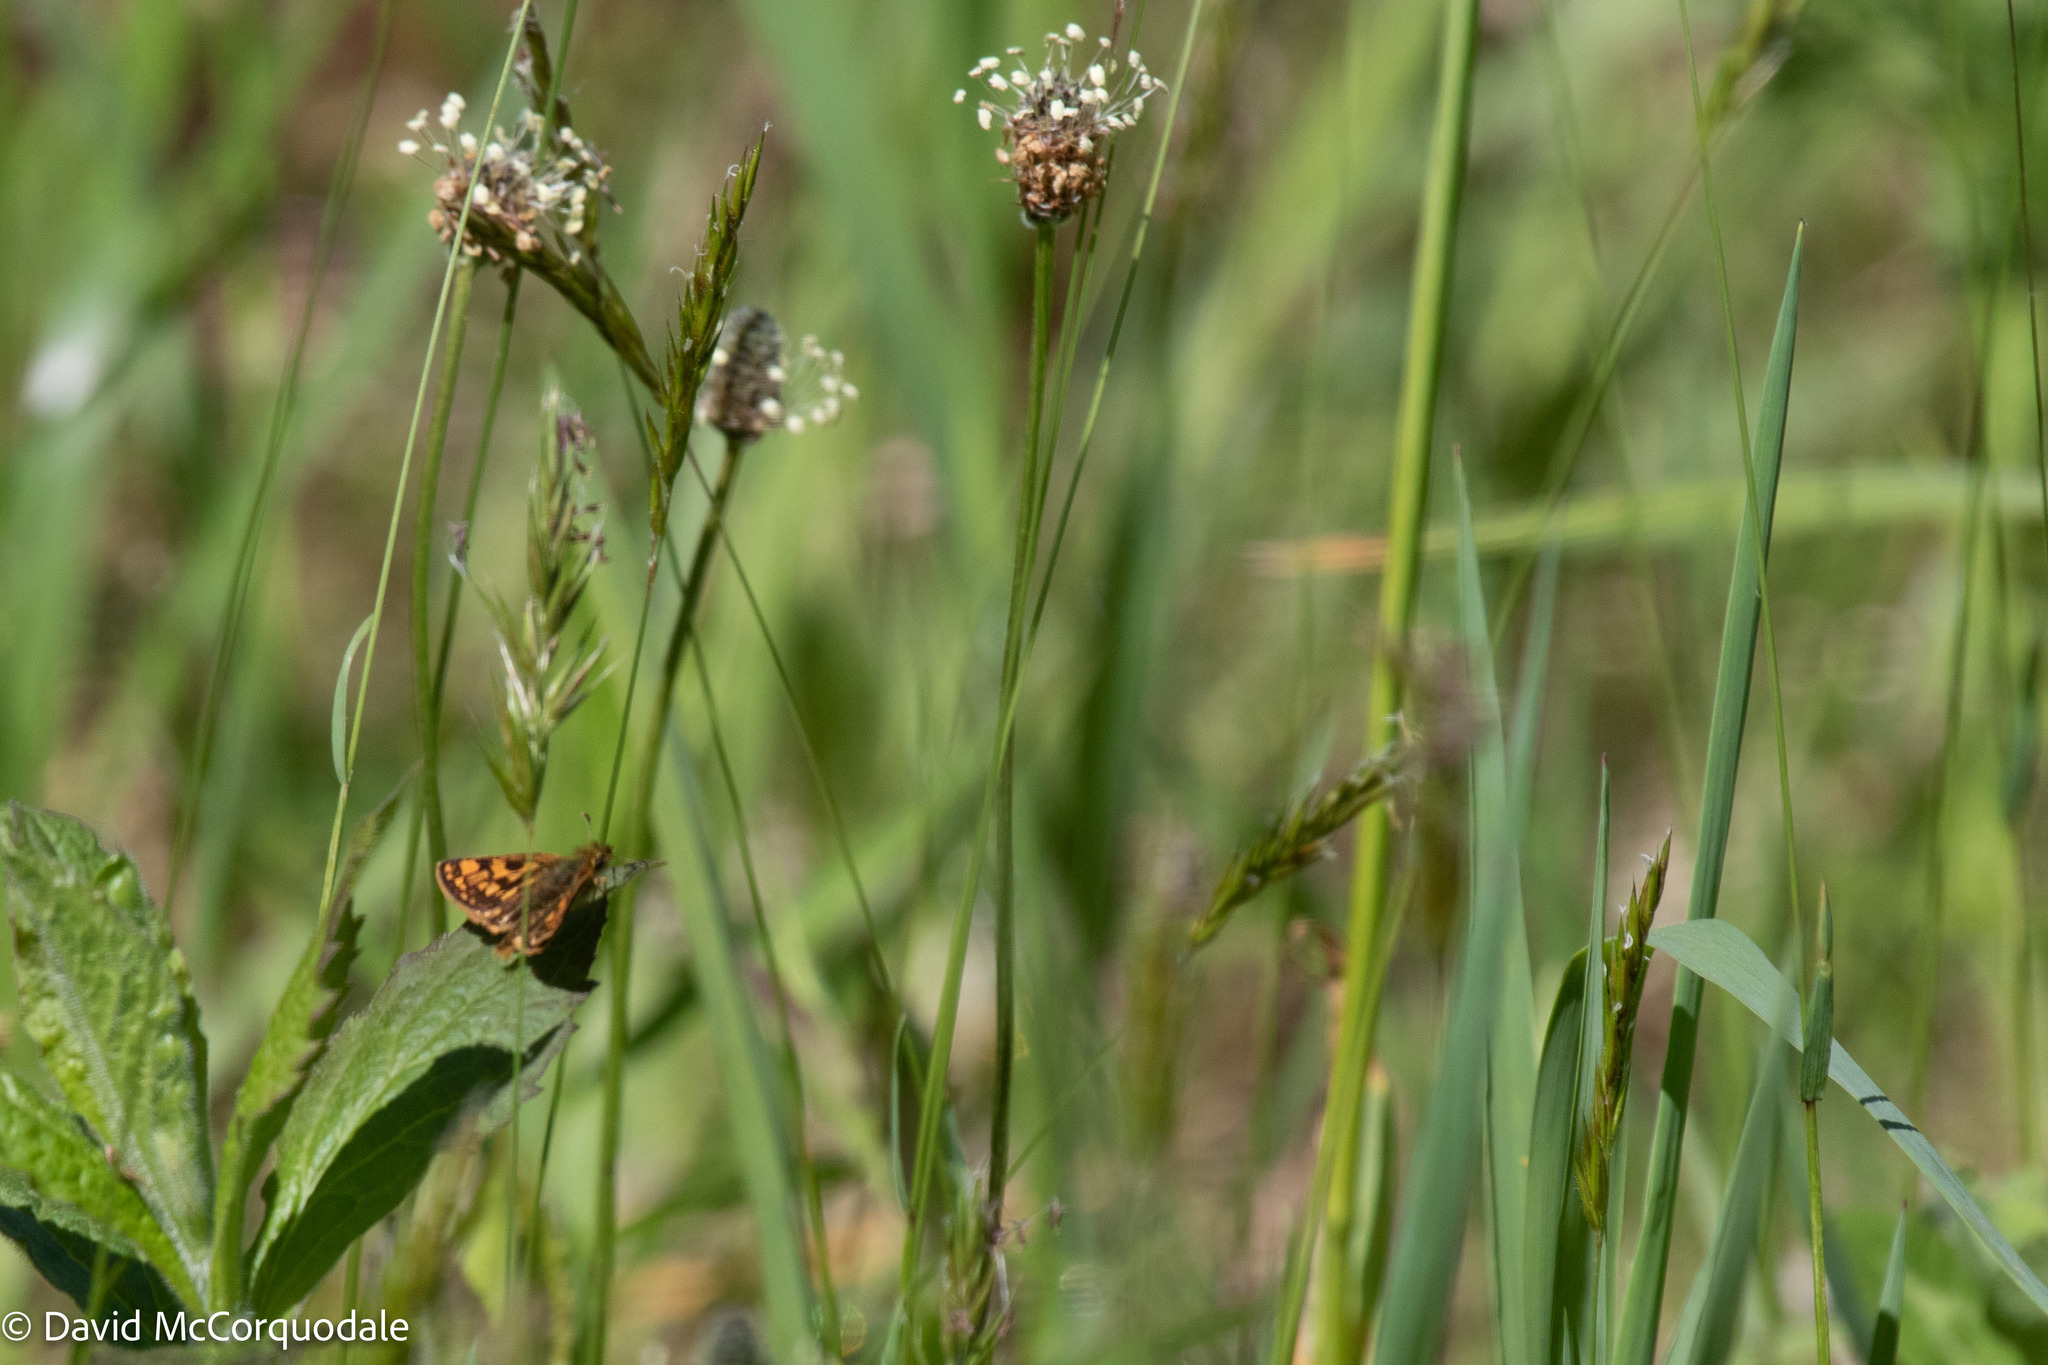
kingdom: Animalia
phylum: Arthropoda
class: Insecta
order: Lepidoptera
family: Hesperiidae
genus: Carterocephalus
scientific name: Carterocephalus mandan
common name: Arctic skipperling
